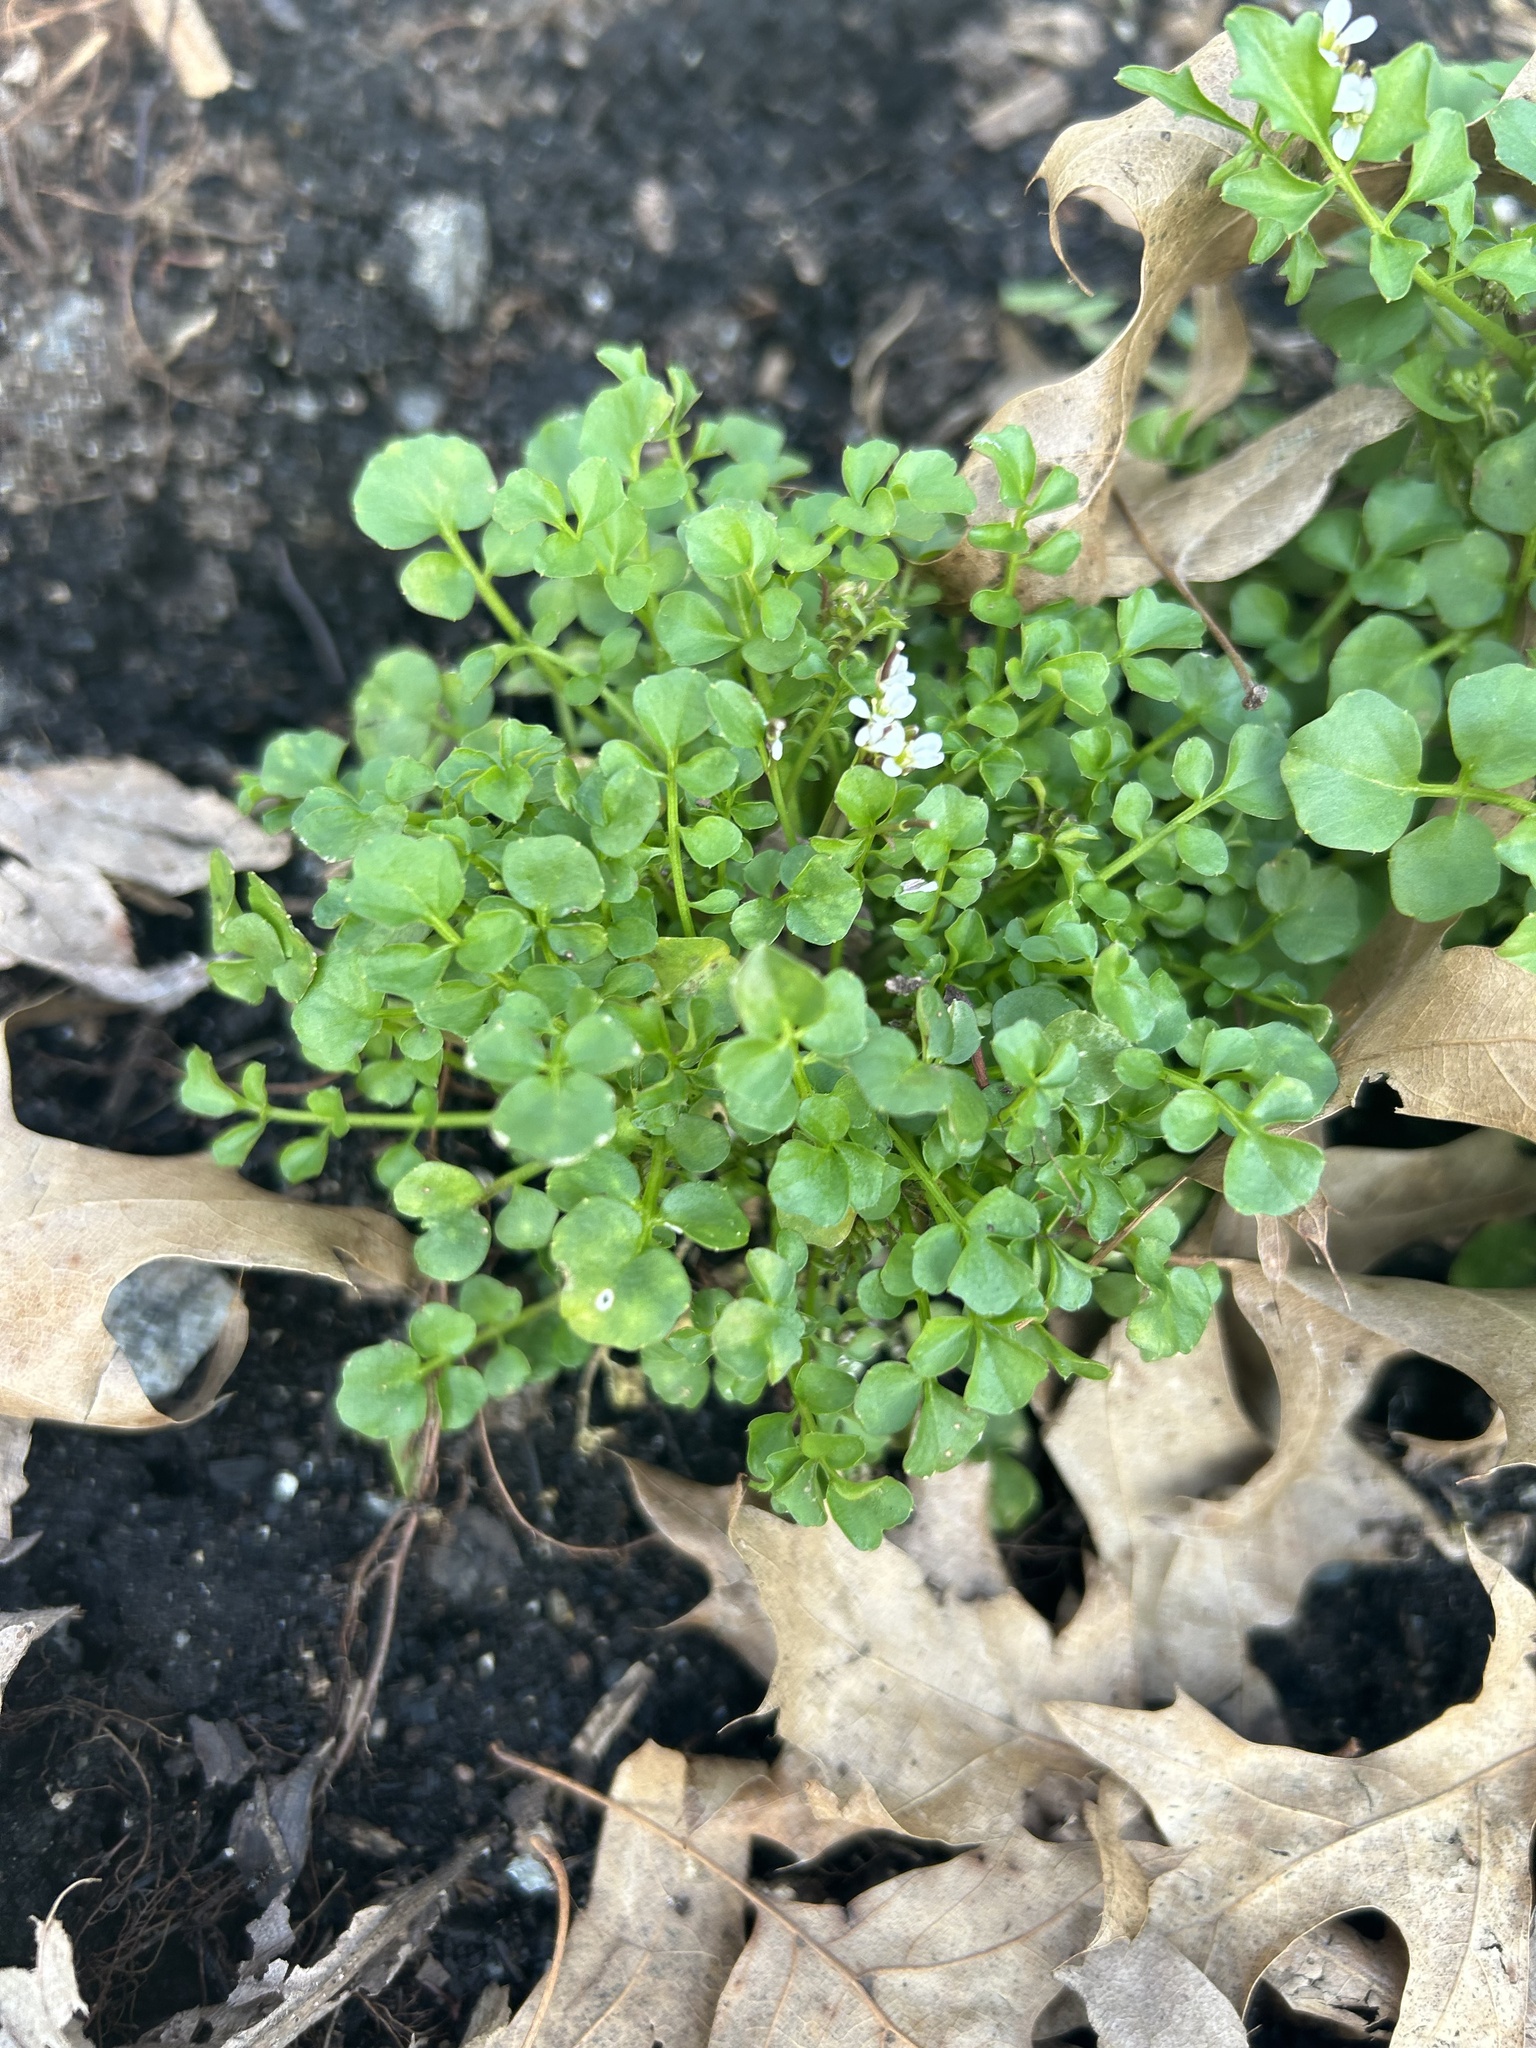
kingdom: Plantae
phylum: Tracheophyta
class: Magnoliopsida
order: Brassicales
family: Brassicaceae
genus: Cardamine
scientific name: Cardamine hirsuta
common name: Hairy bittercress
